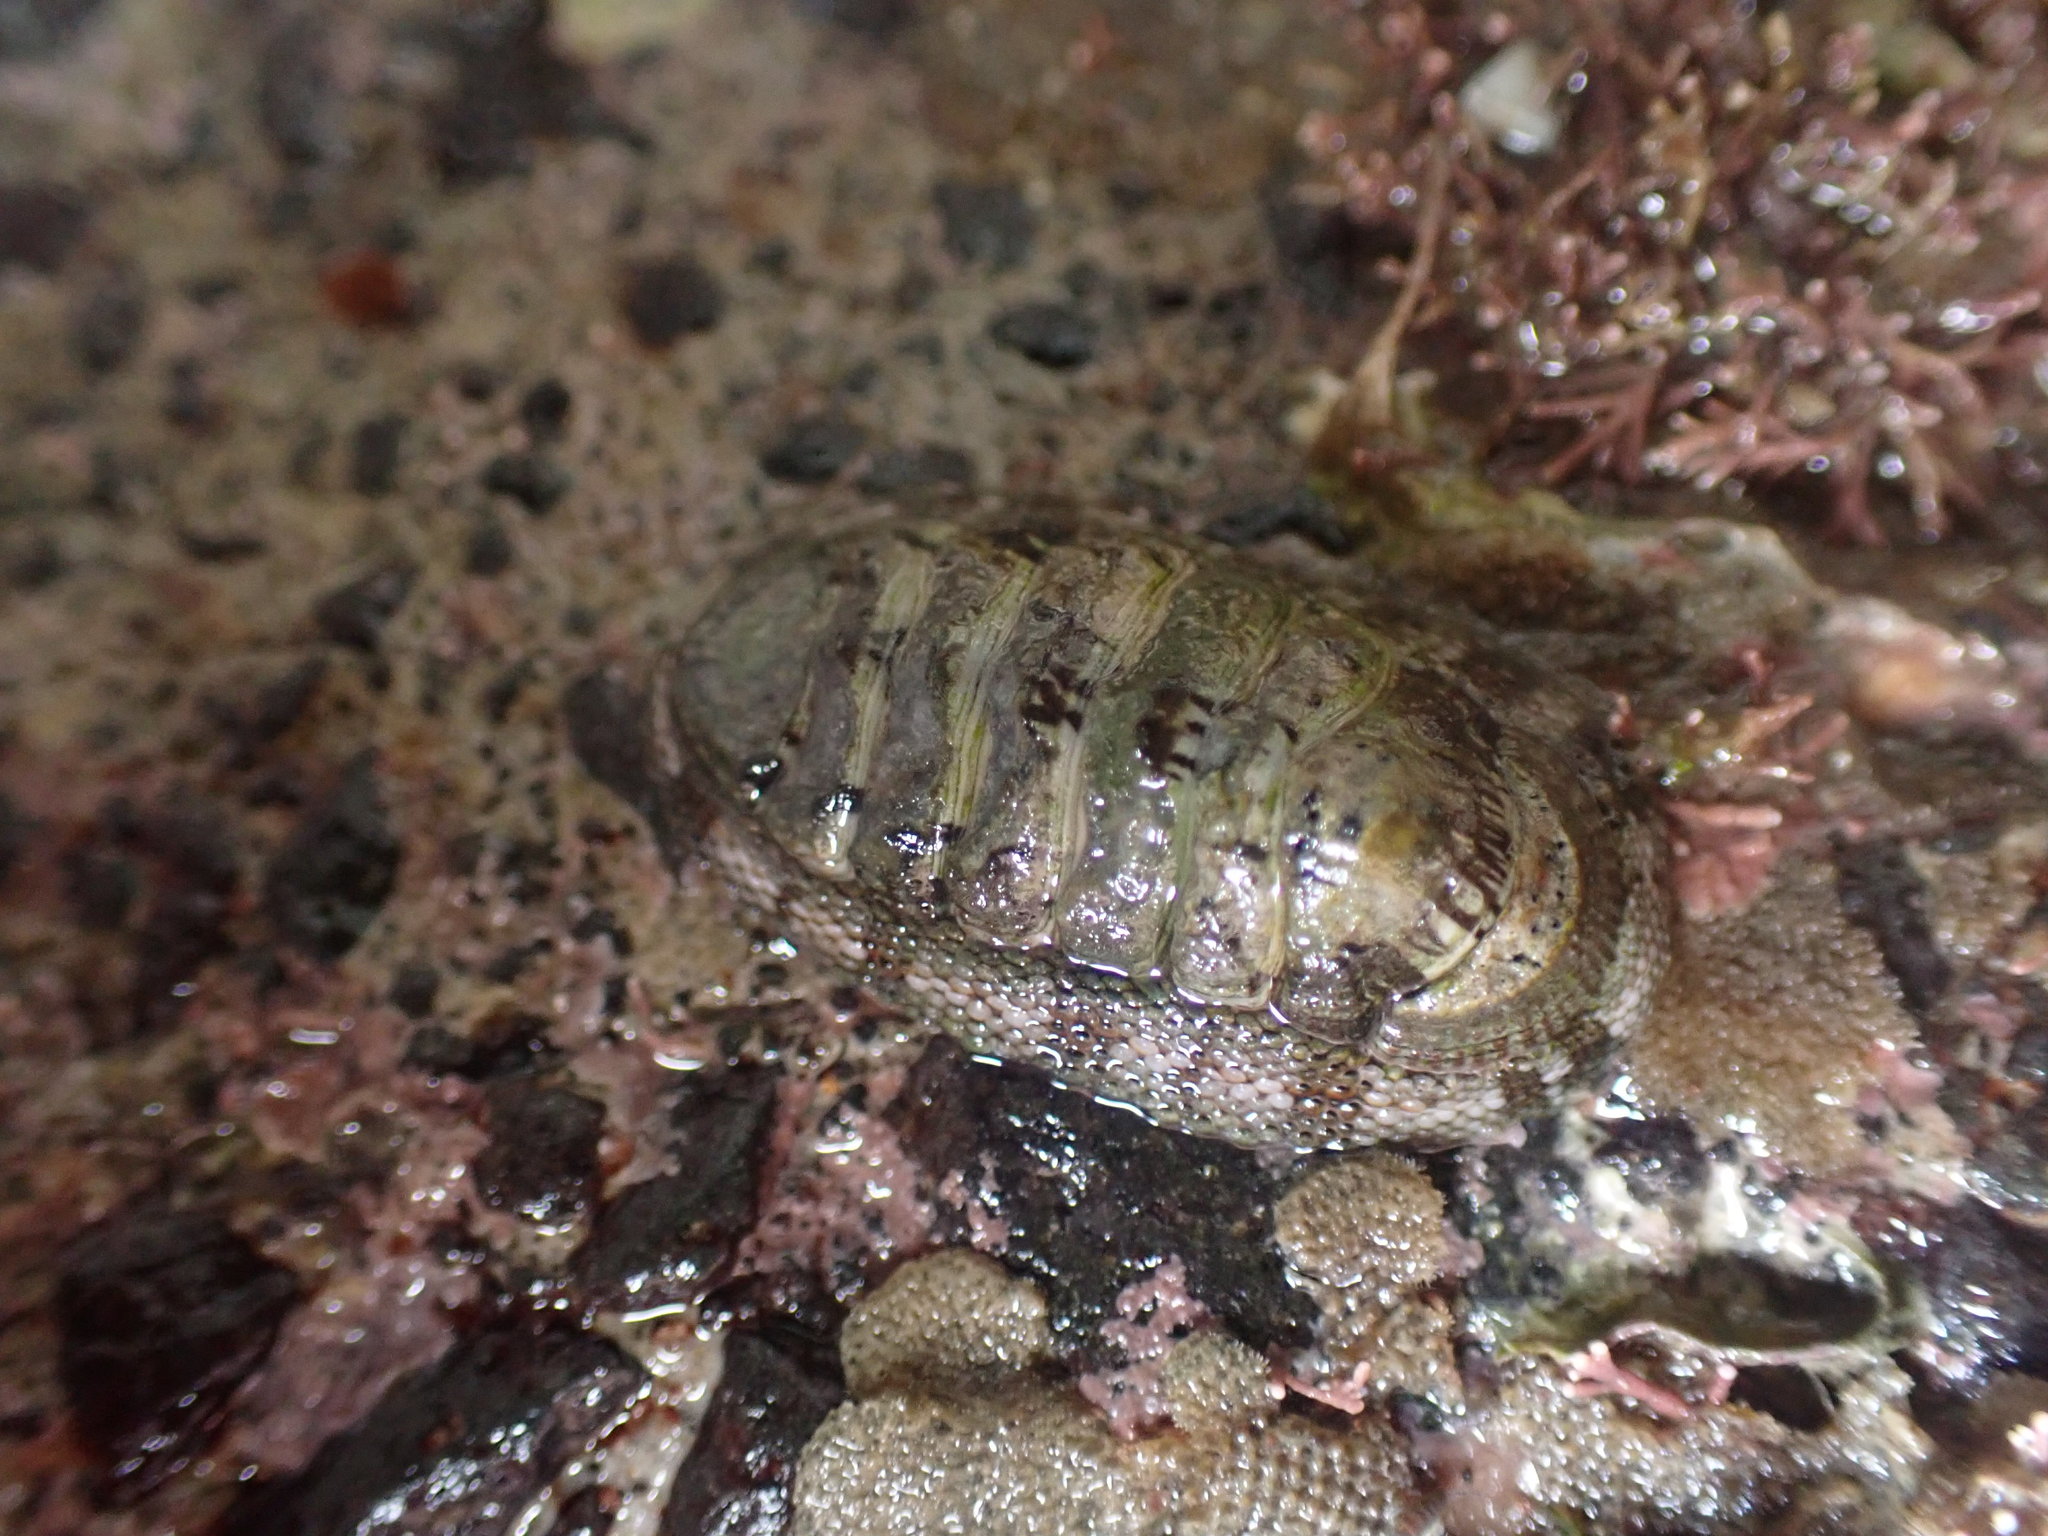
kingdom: Animalia
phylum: Mollusca
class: Polyplacophora
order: Chitonida
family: Chitonidae
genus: Sypharochiton
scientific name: Sypharochiton pelliserpentis
